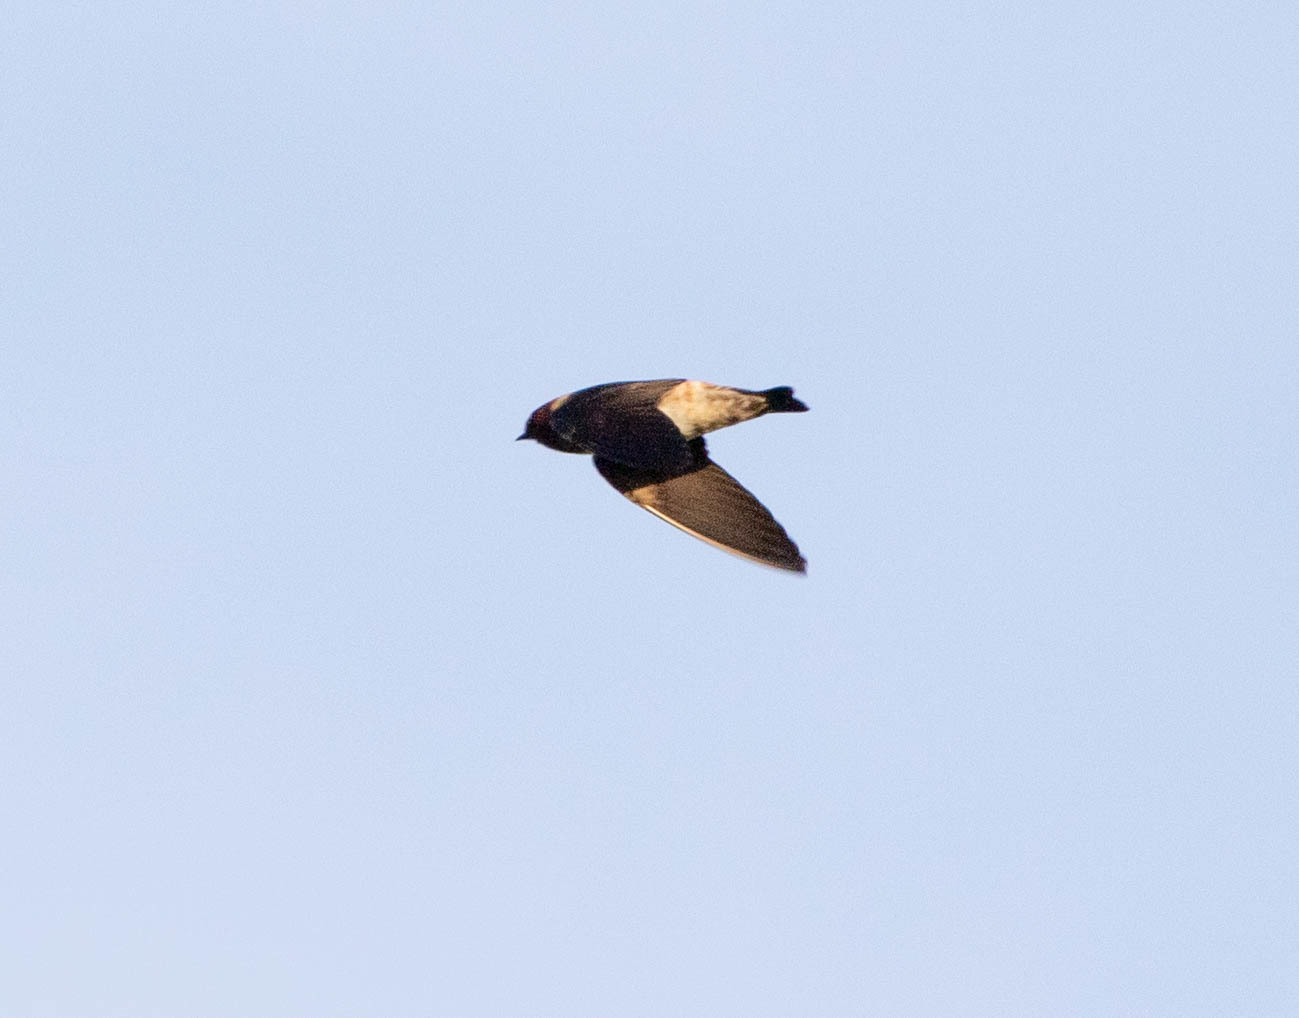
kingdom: Animalia
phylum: Chordata
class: Aves
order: Passeriformes
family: Hirundinidae
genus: Petrochelidon
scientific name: Petrochelidon pyrrhonota
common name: American cliff swallow
